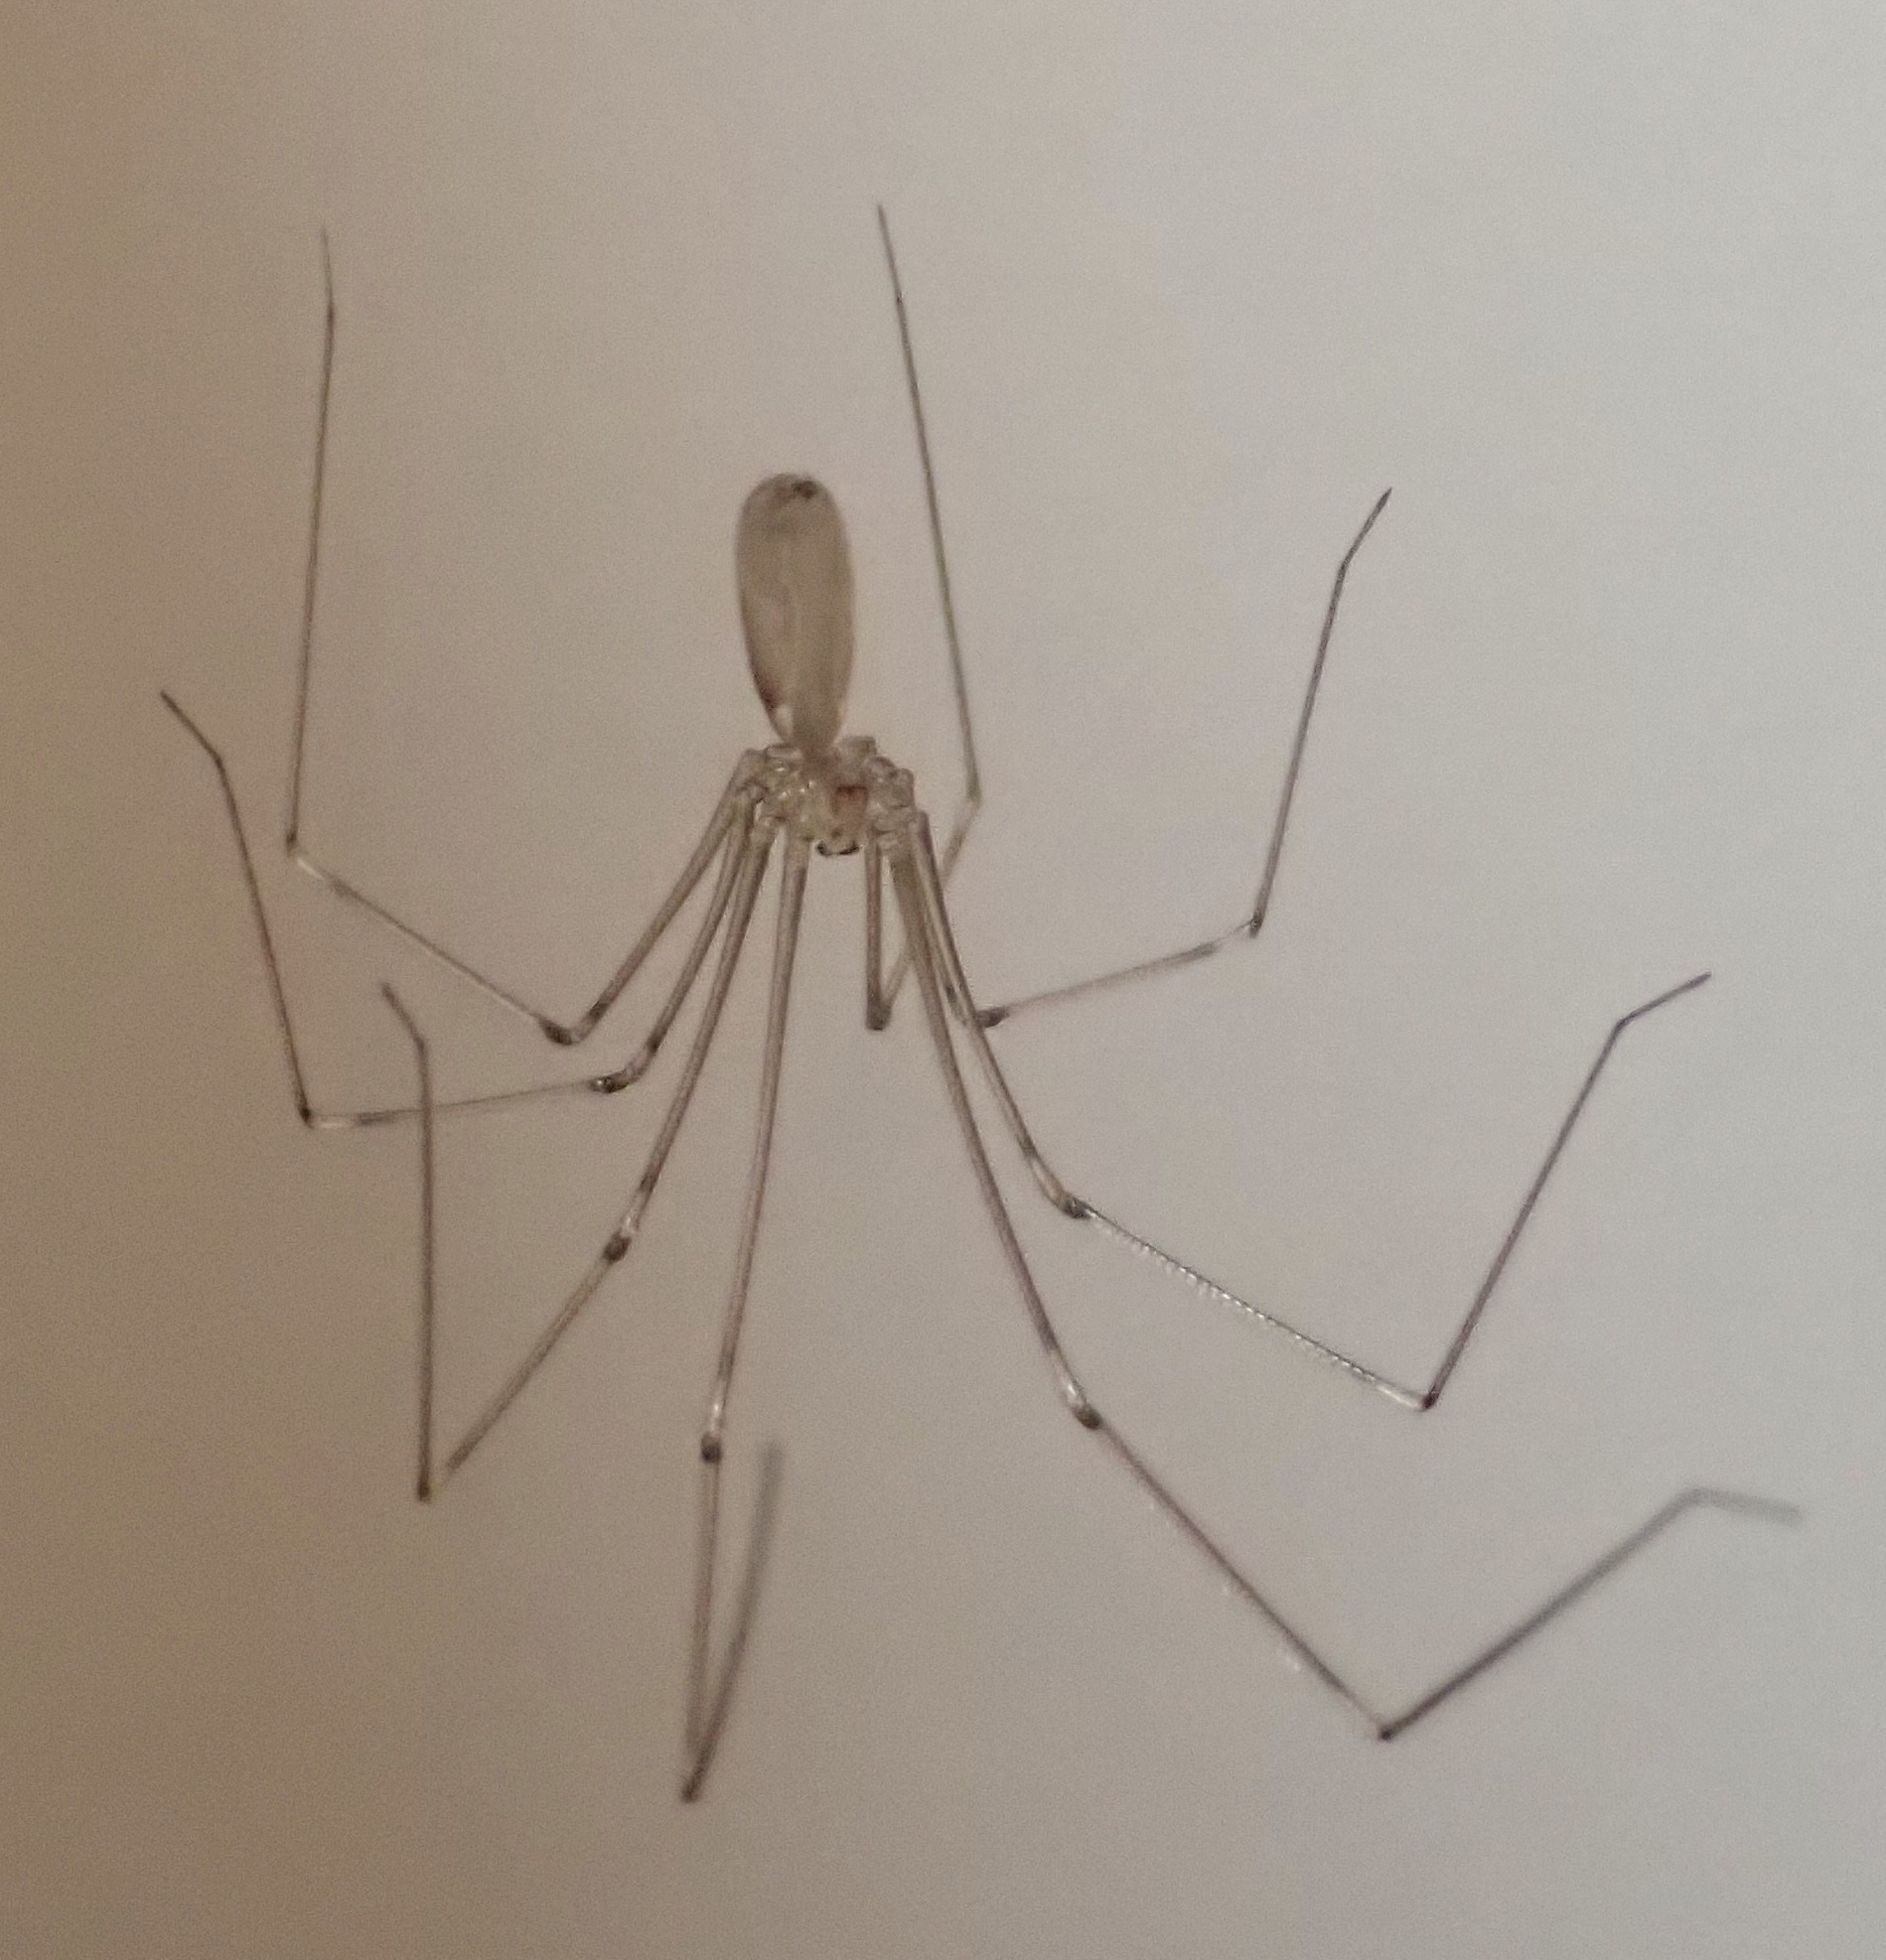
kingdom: Animalia
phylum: Arthropoda
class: Arachnida
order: Araneae
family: Pholcidae
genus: Pholcus
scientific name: Pholcus phalangioides
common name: Longbodied cellar spider
